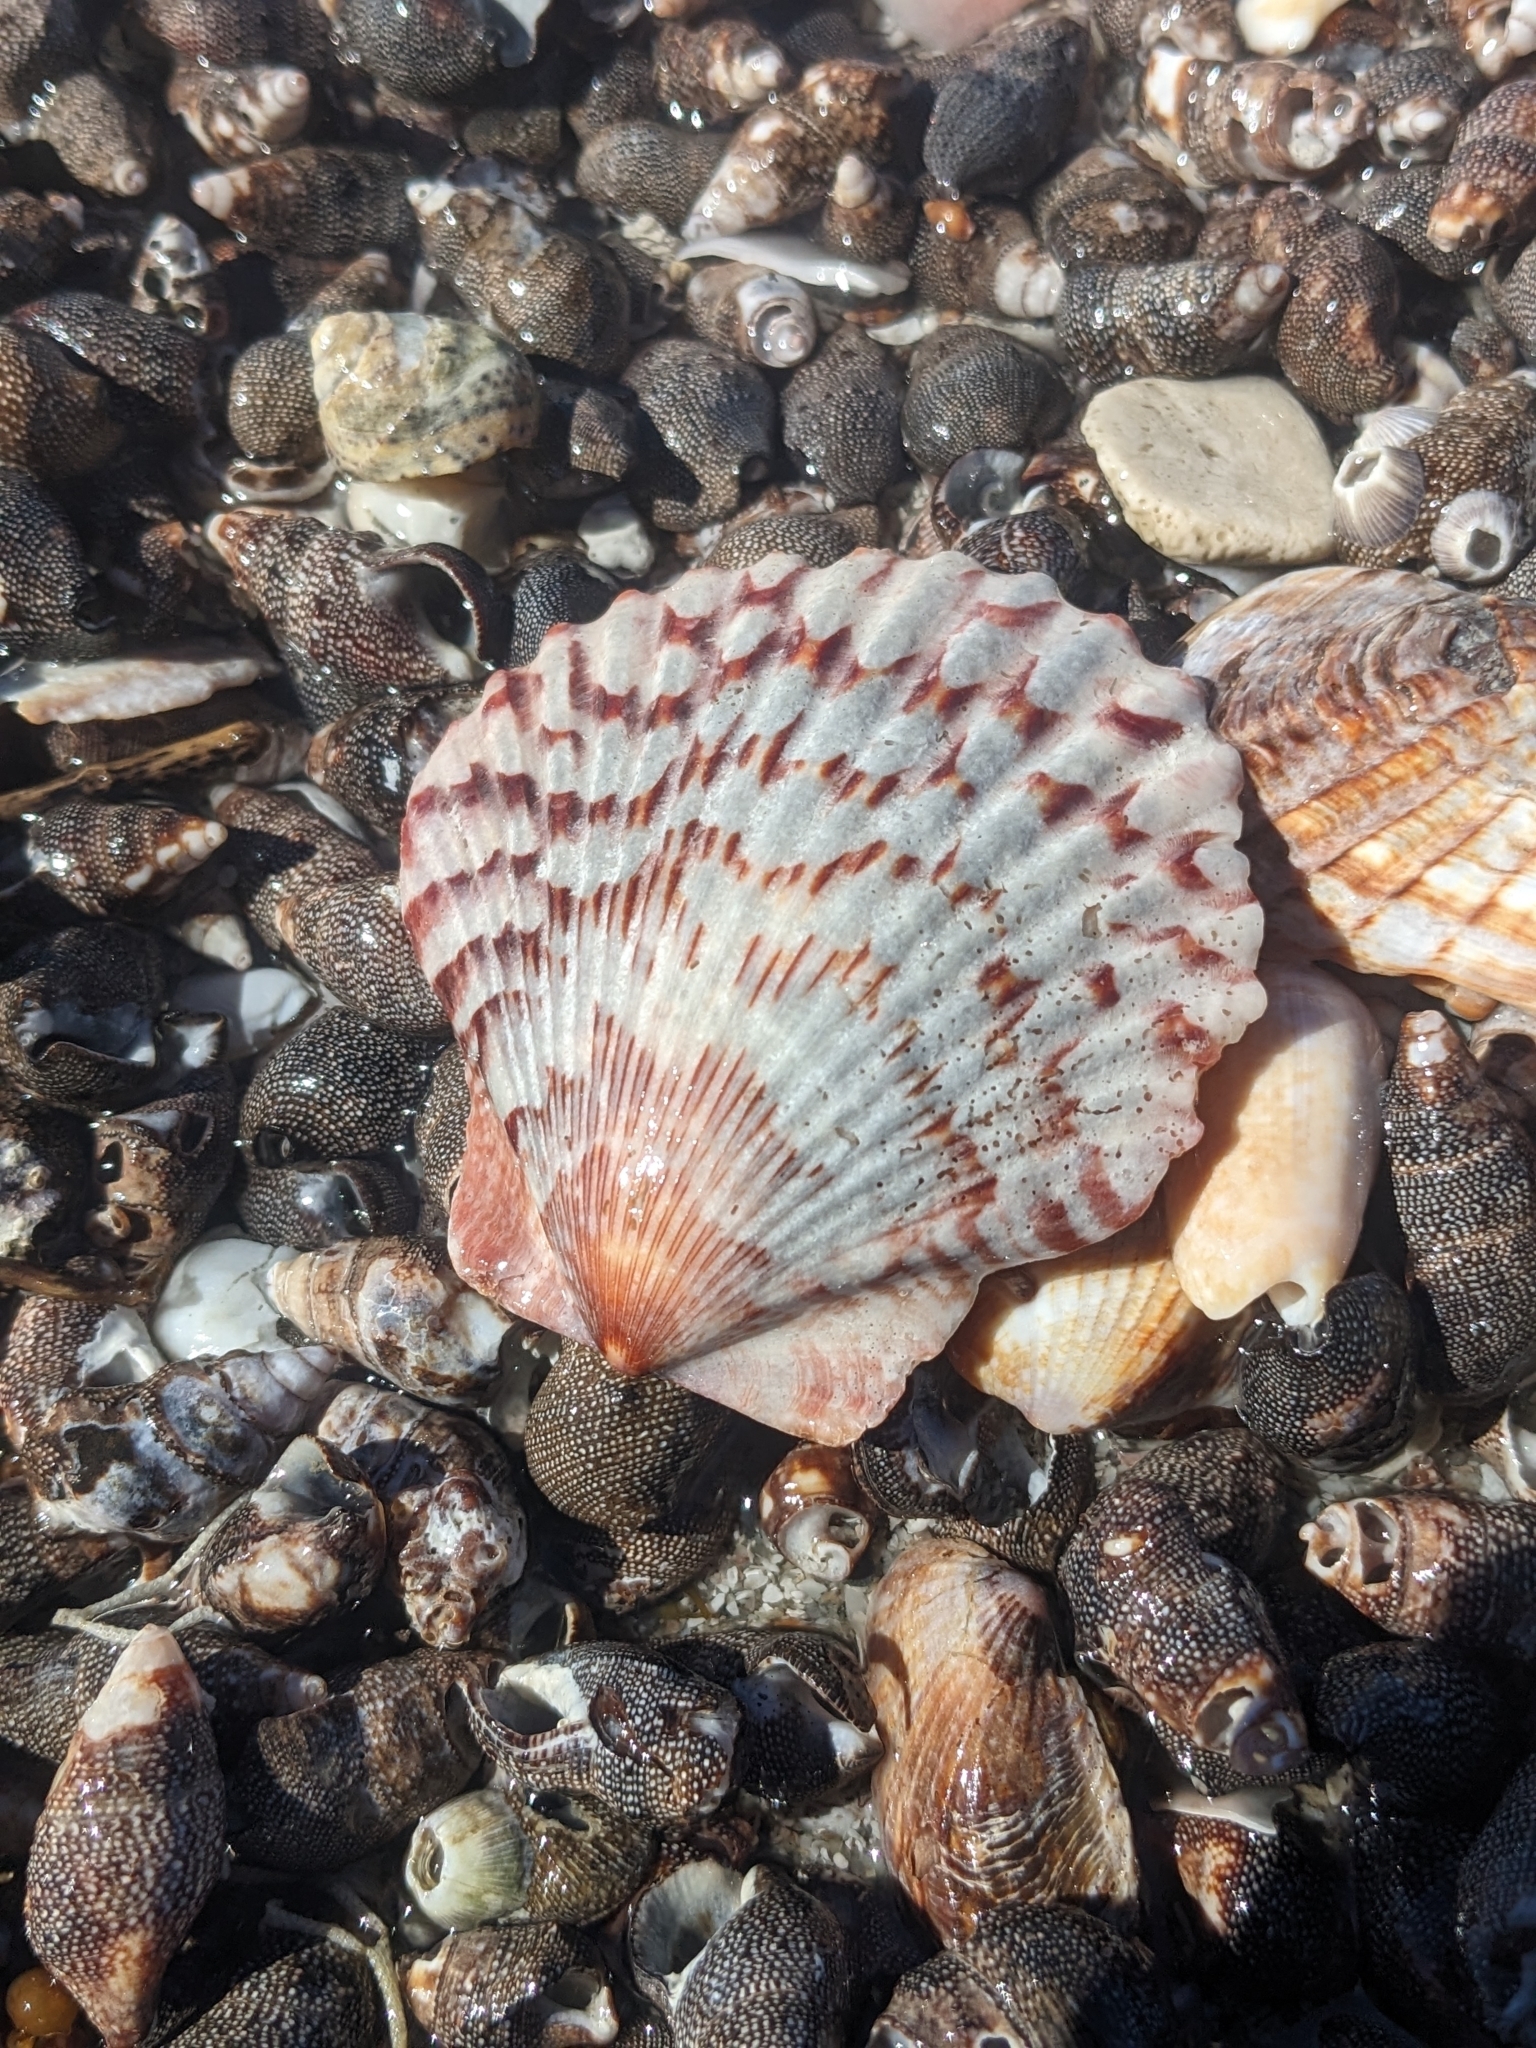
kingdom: Animalia
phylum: Mollusca
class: Bivalvia
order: Pectinida
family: Pectinidae
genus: Argopecten
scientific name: Argopecten ventricosus
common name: Catarina scallop
